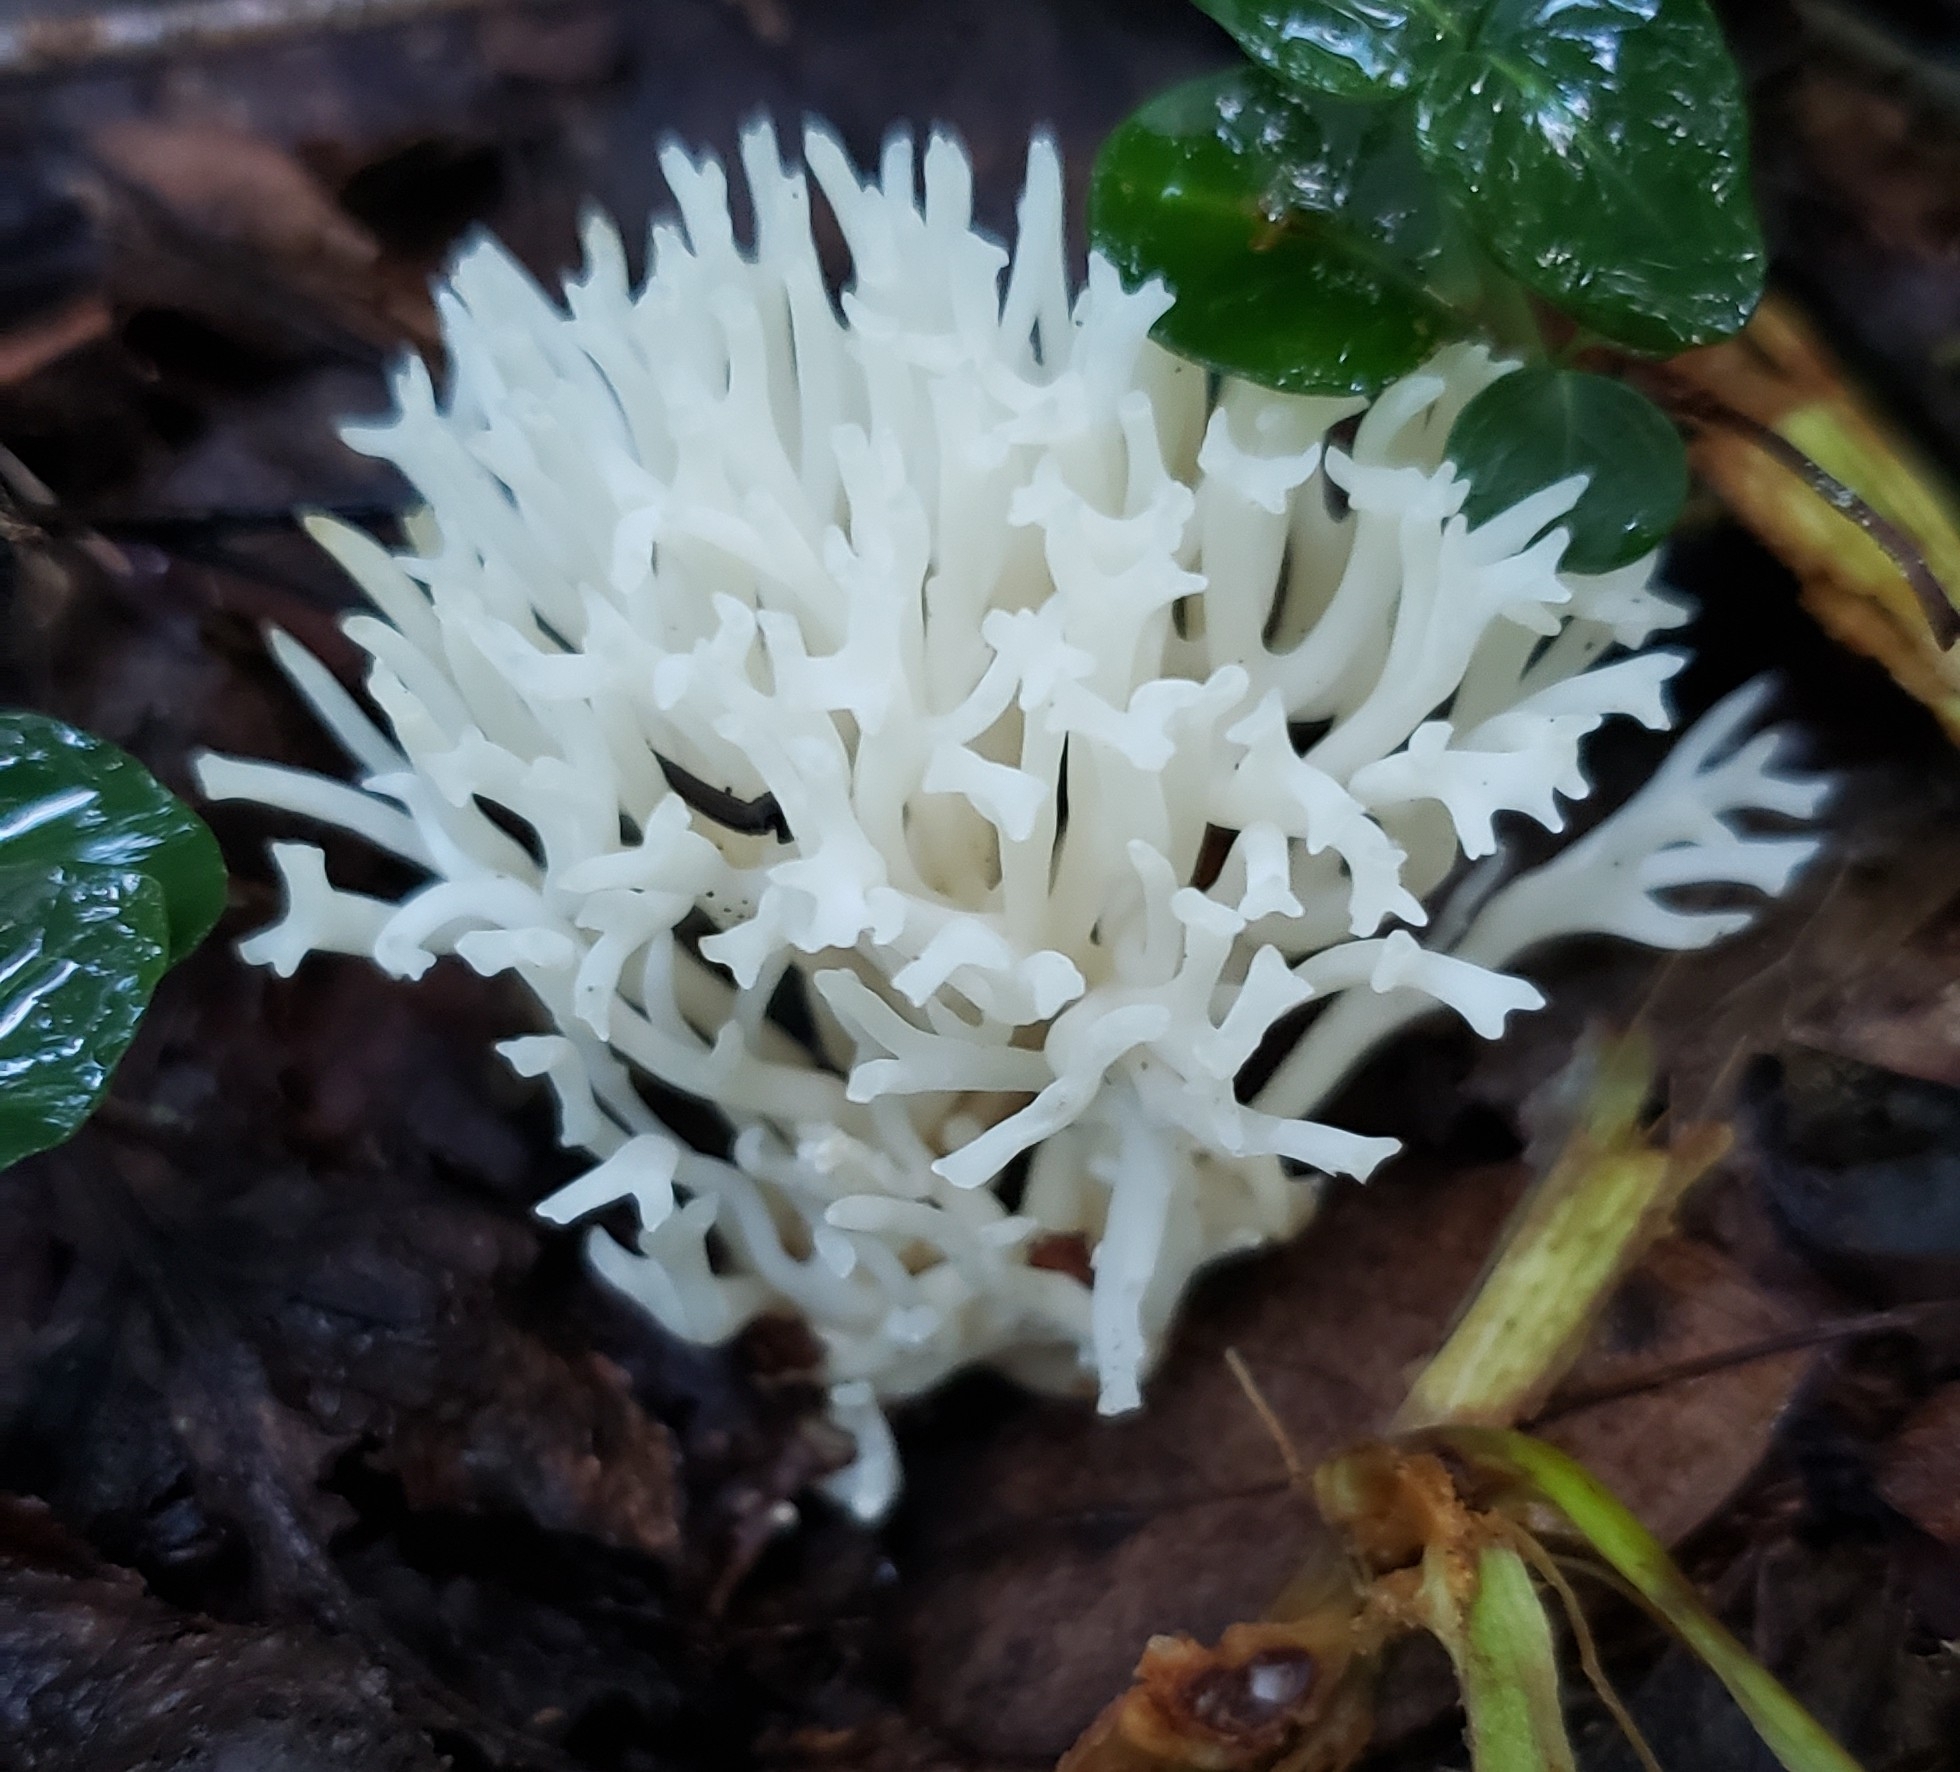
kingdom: Fungi
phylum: Basidiomycota
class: Agaricomycetes
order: Agaricales
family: Clavariaceae
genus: Ramariopsis
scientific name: Ramariopsis kunzei
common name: Ivory coral
